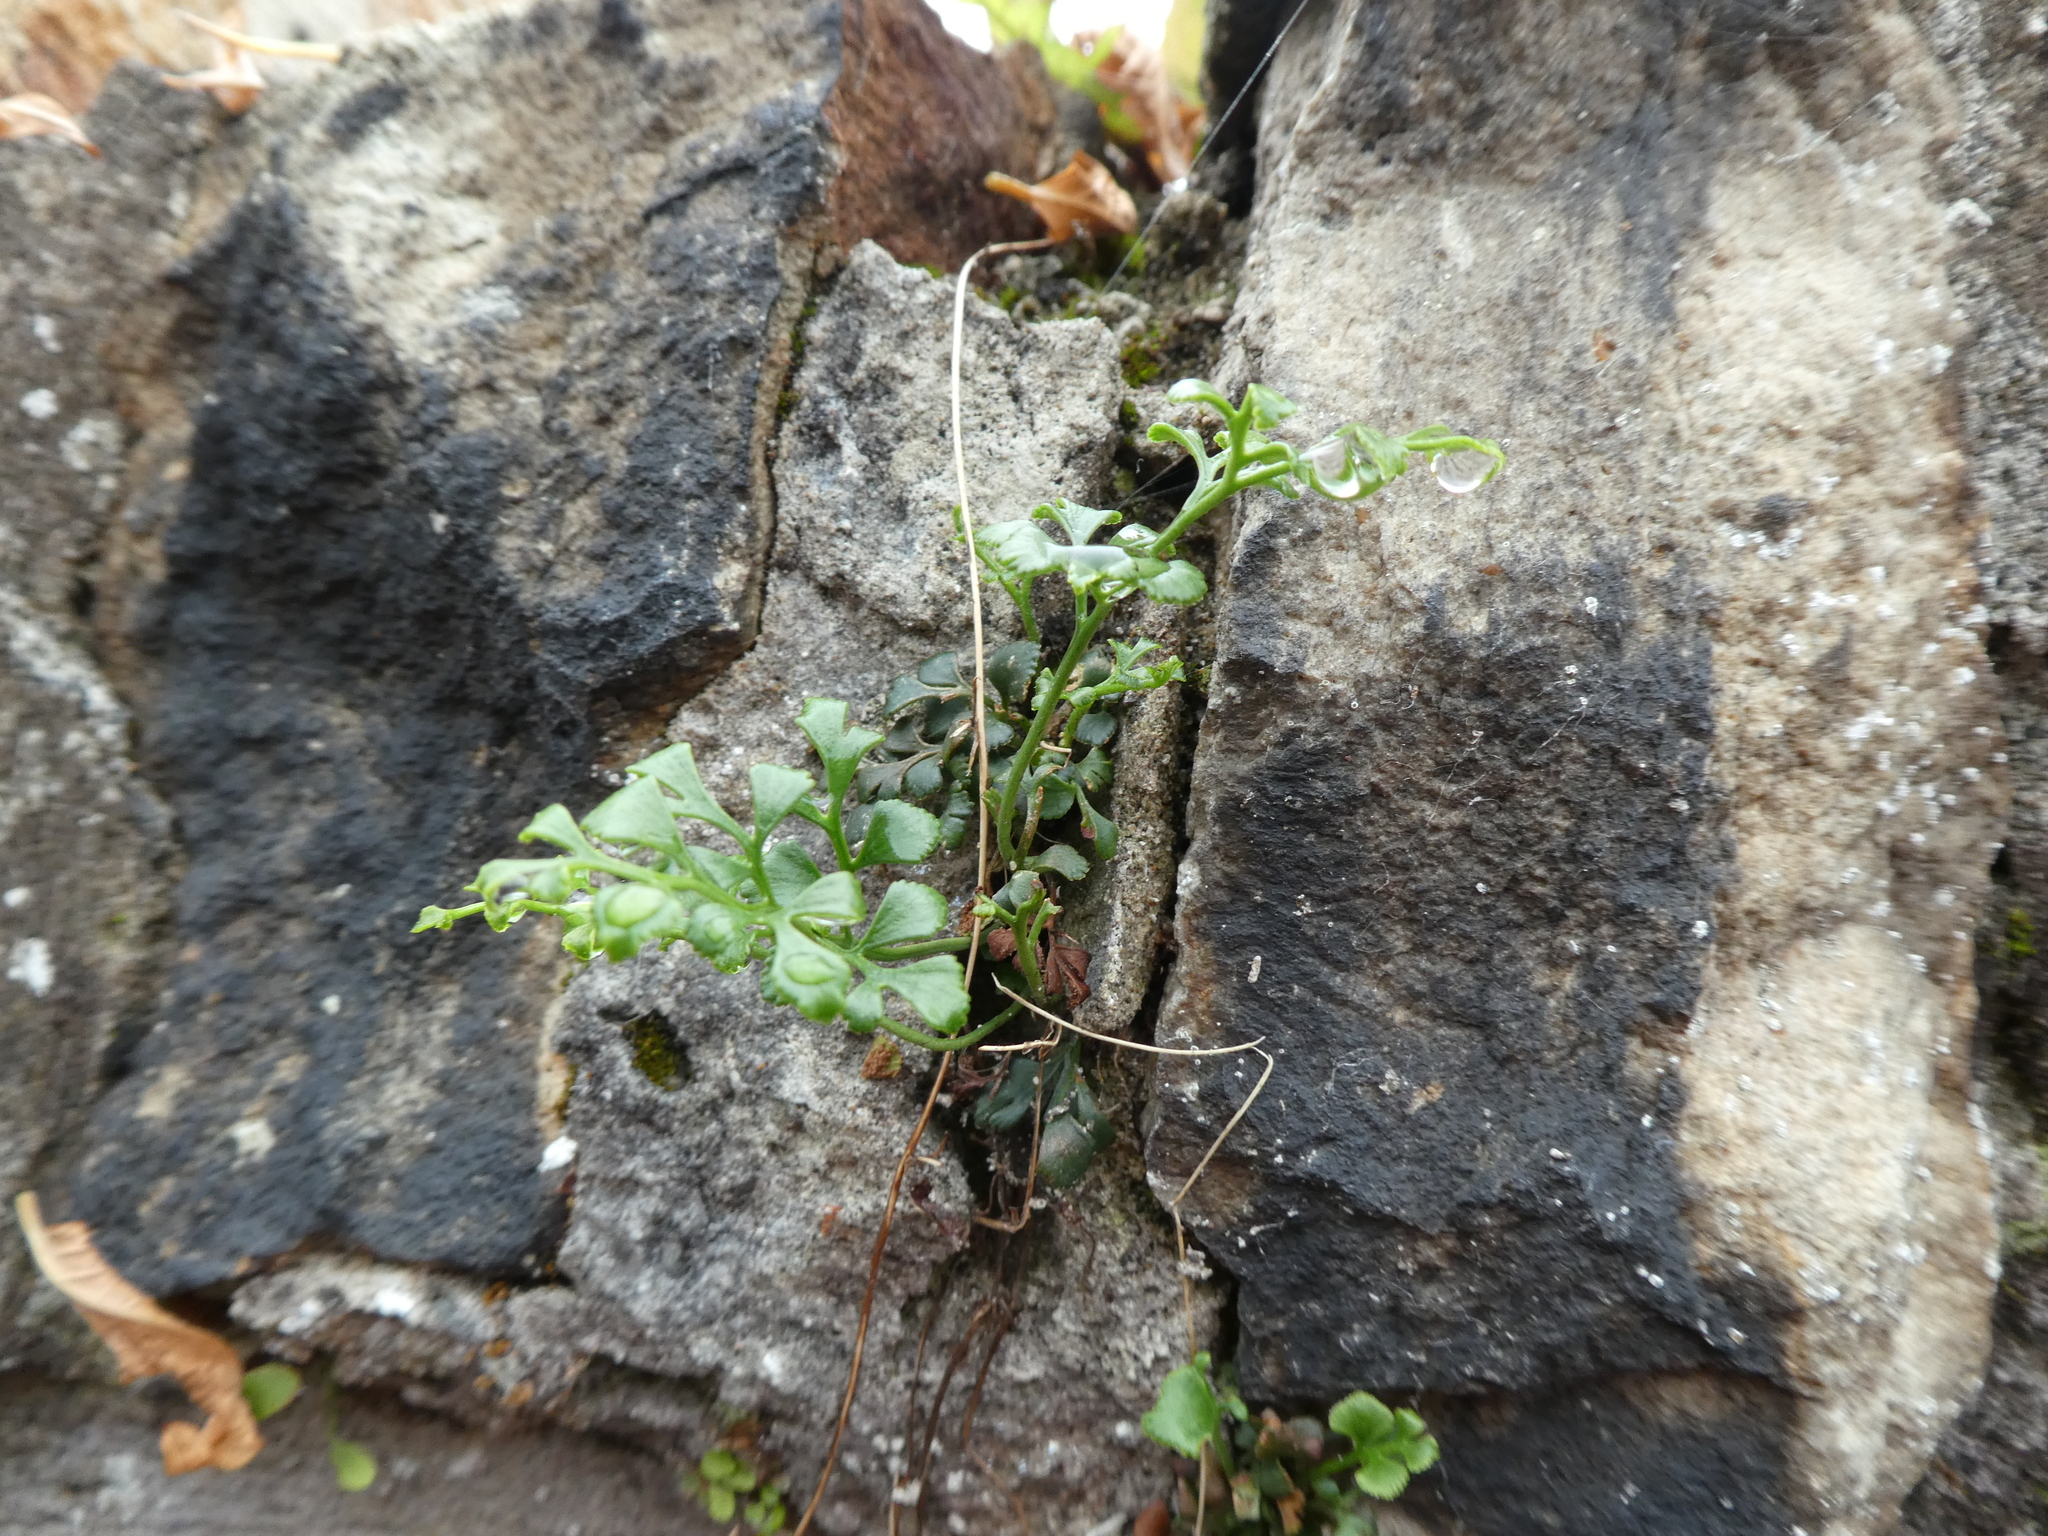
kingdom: Plantae
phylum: Tracheophyta
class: Polypodiopsida
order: Polypodiales
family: Aspleniaceae
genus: Asplenium
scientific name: Asplenium ruta-muraria
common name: Wall-rue
